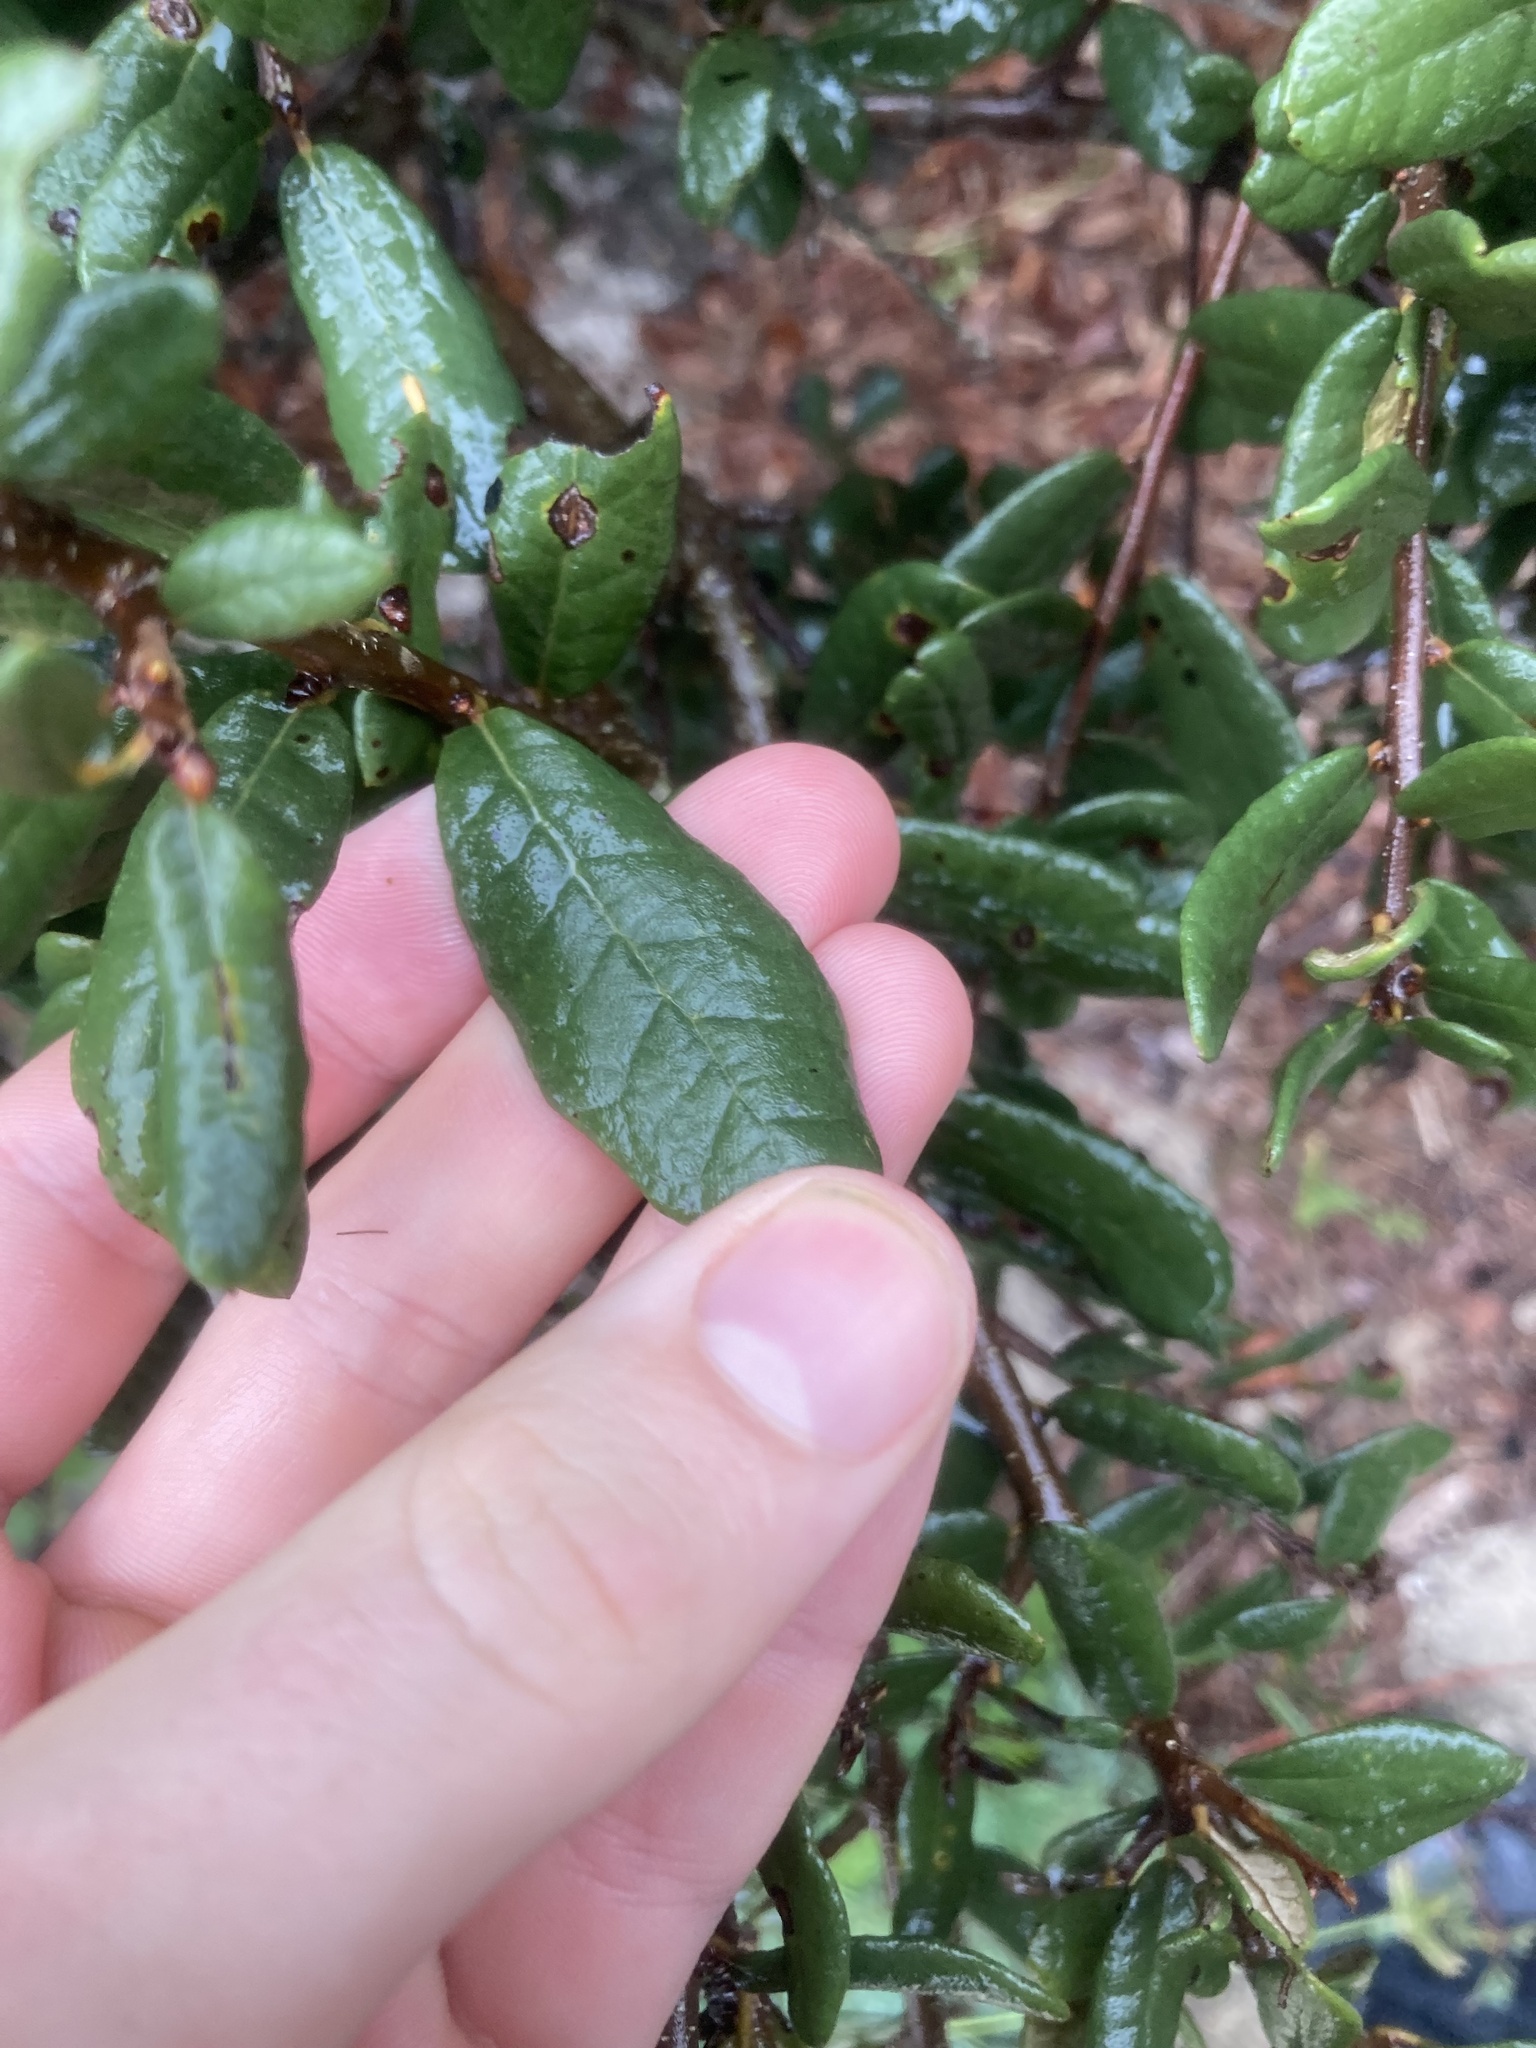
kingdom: Plantae
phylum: Tracheophyta
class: Magnoliopsida
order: Fagales
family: Fagaceae
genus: Quercus
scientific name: Quercus geminata
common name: Sand live oak
